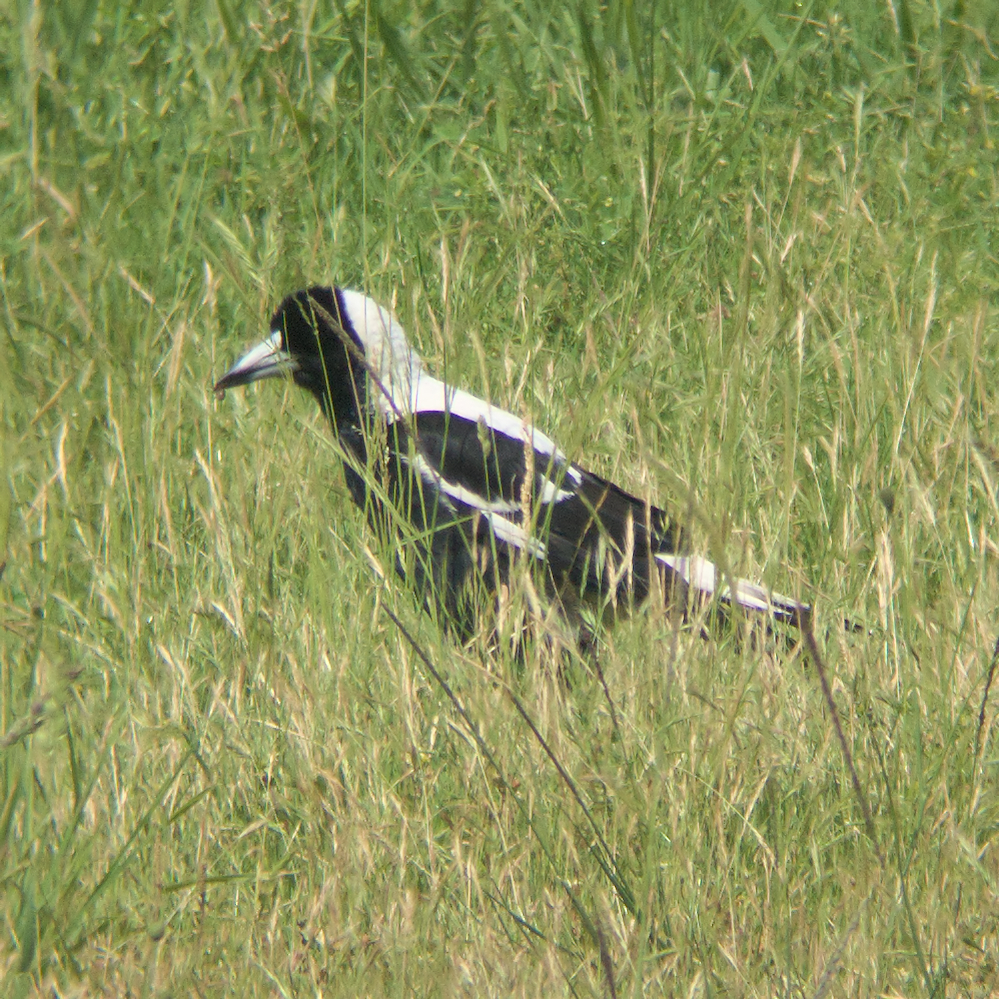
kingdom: Animalia
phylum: Chordata
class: Aves
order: Passeriformes
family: Cracticidae
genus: Gymnorhina
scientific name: Gymnorhina tibicen
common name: Australian magpie
